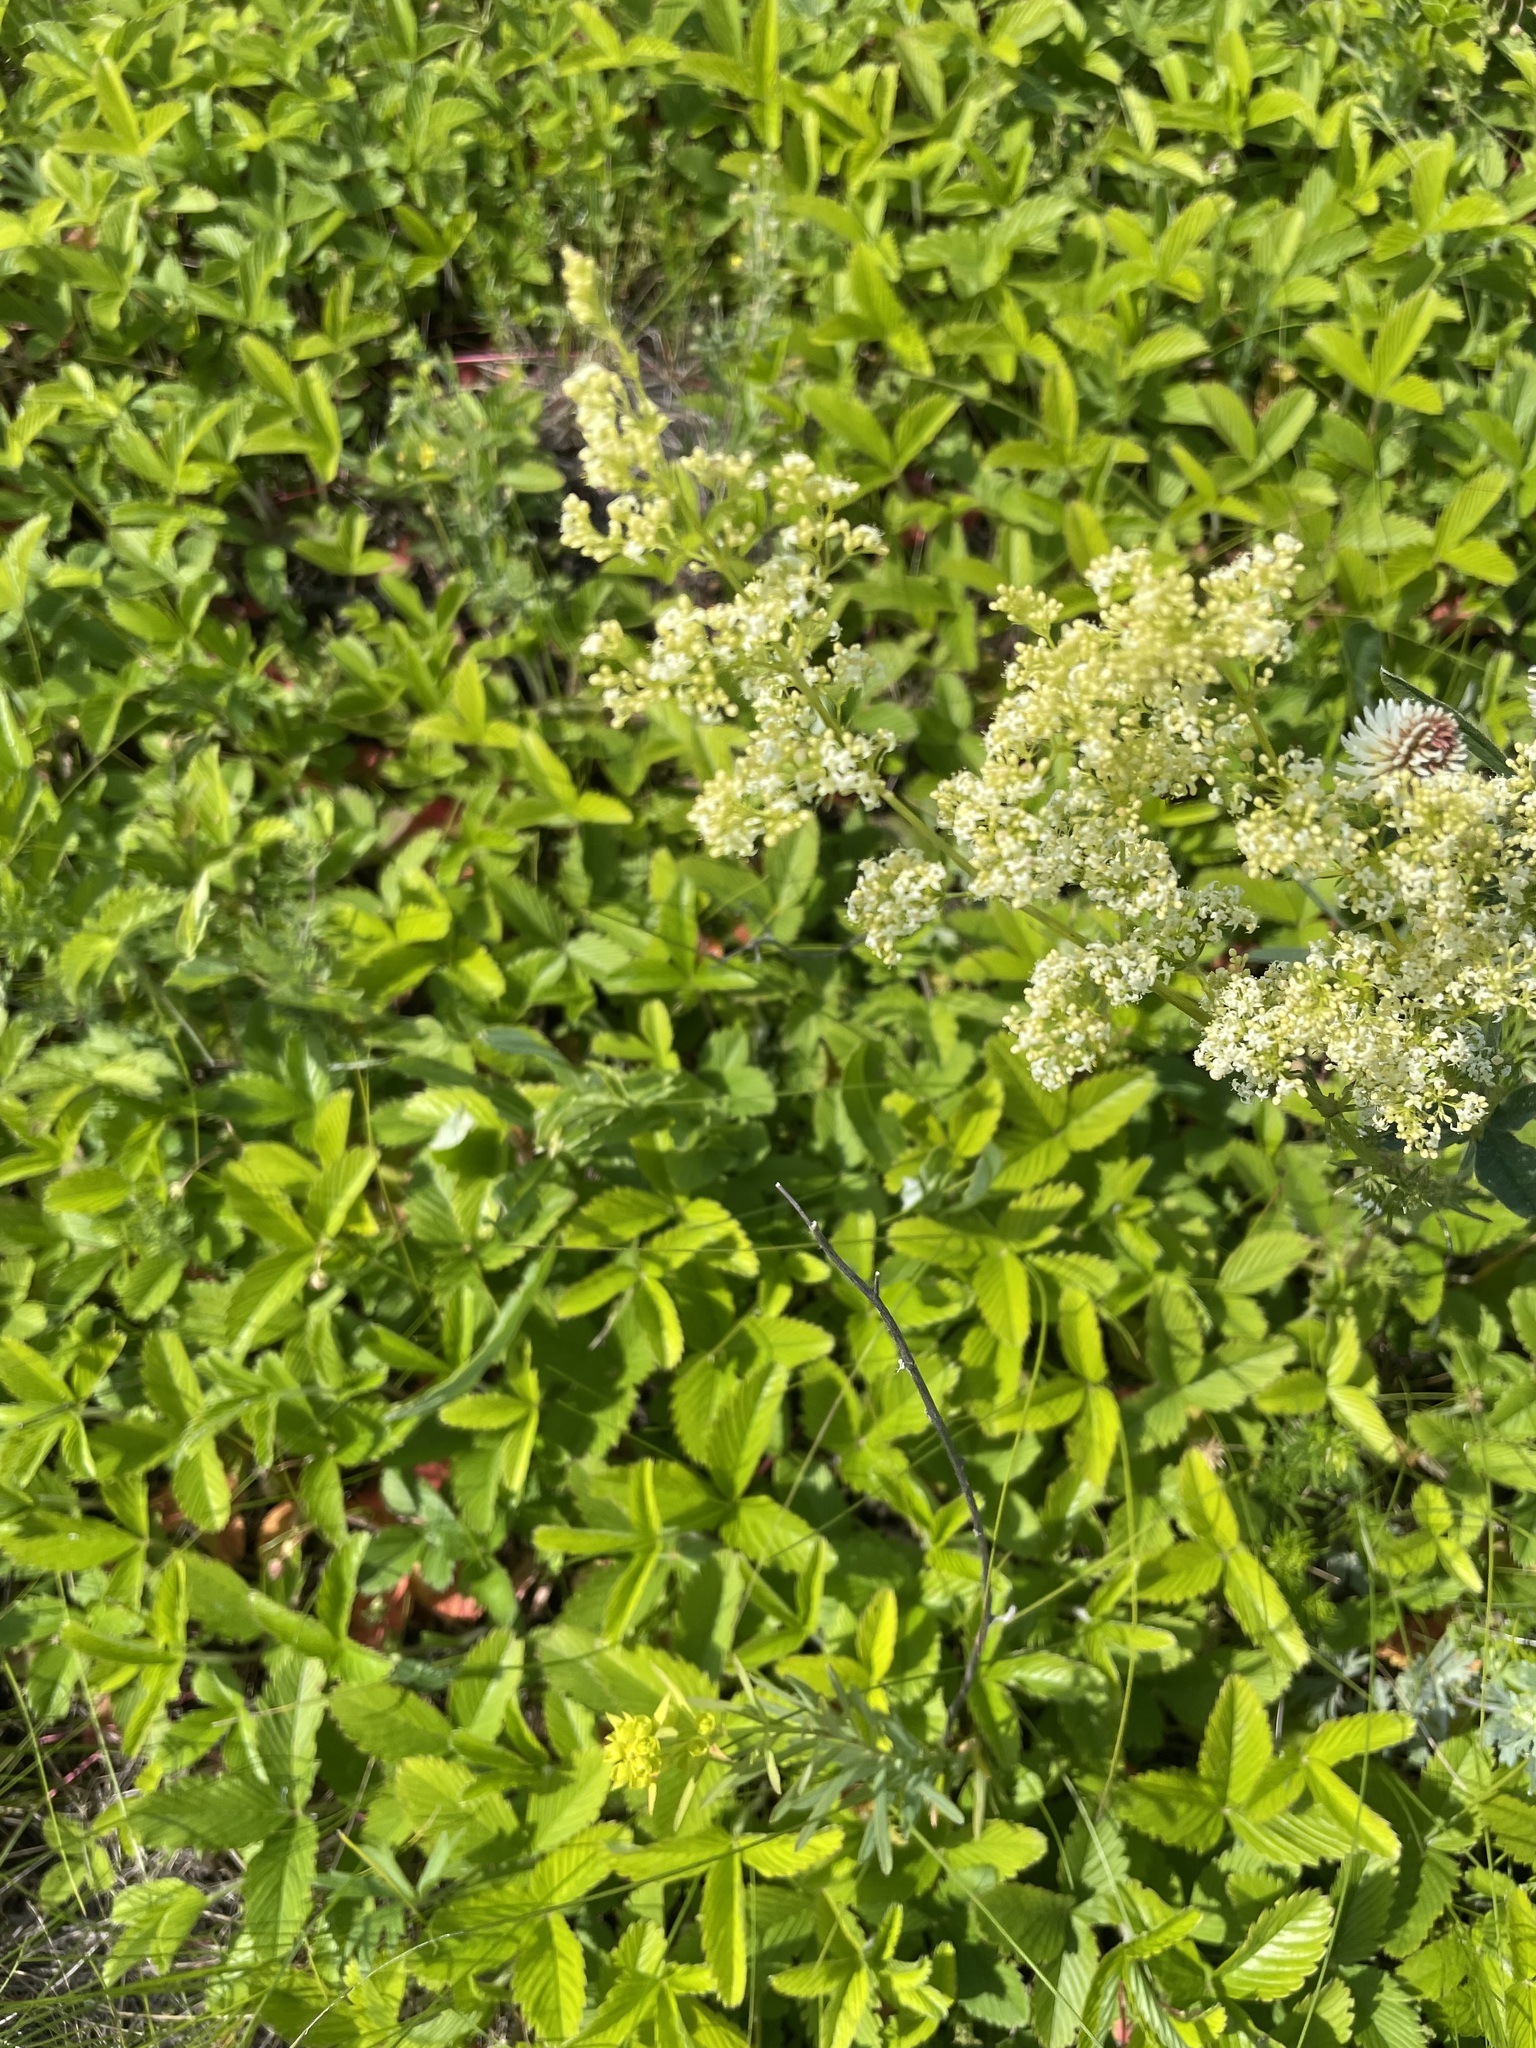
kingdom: Plantae
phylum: Tracheophyta
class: Magnoliopsida
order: Gentianales
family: Rubiaceae
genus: Galium
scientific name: Galium mollugo
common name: Hedge bedstraw
